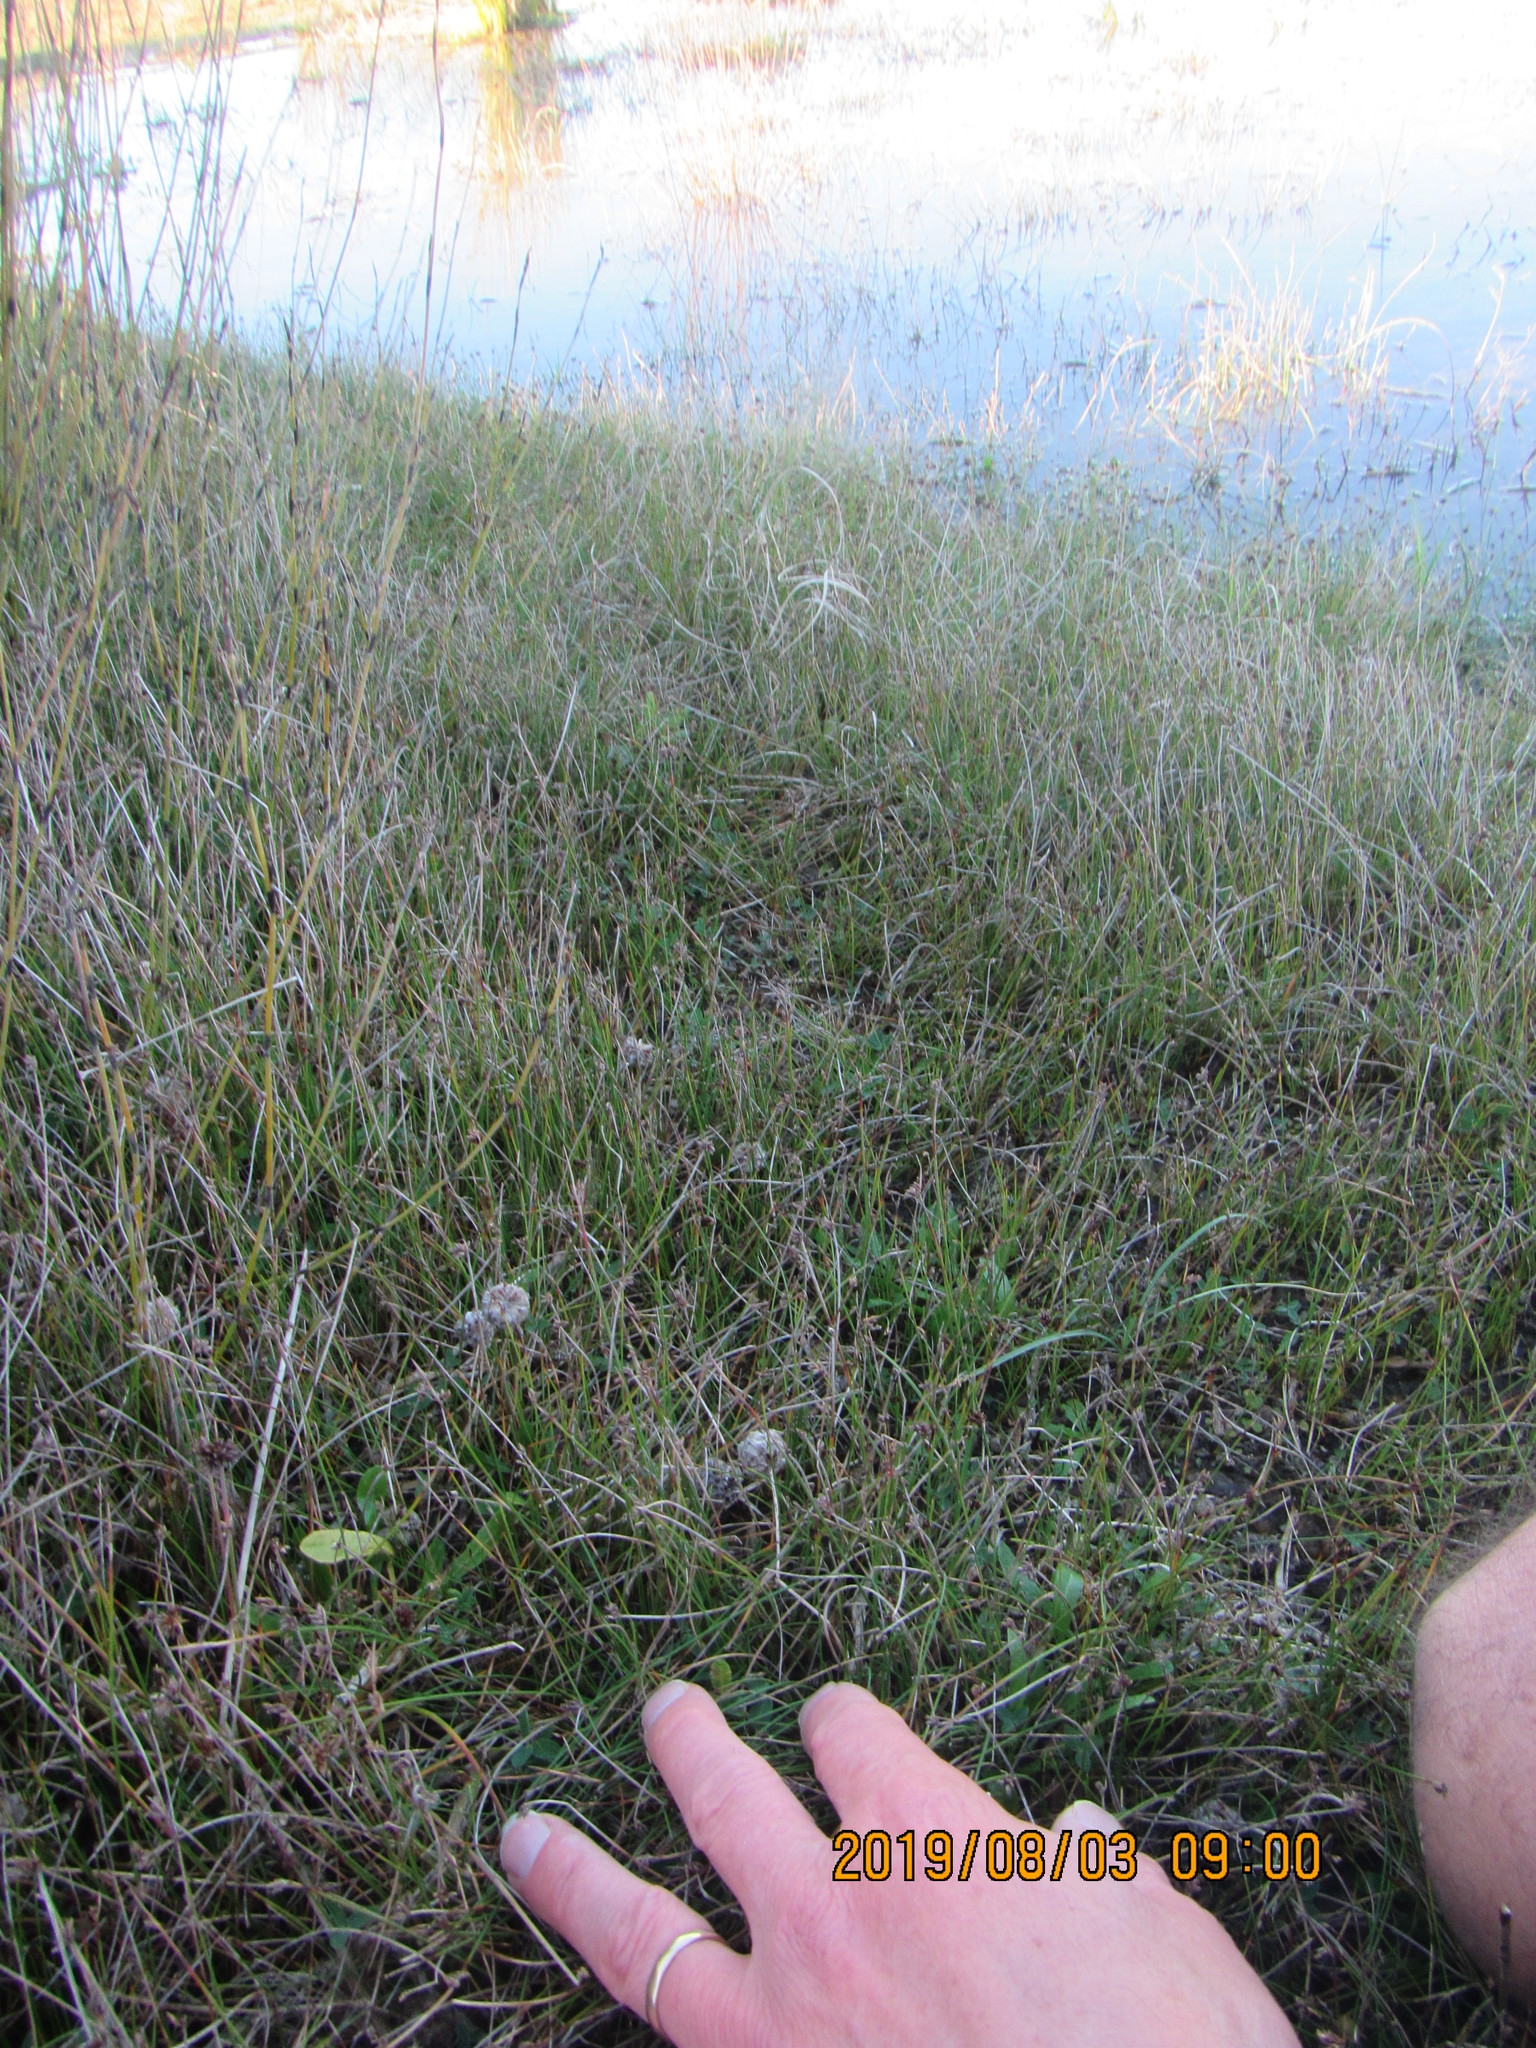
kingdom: Plantae
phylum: Tracheophyta
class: Magnoliopsida
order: Fabales
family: Fabaceae
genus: Trifolium
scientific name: Trifolium fragiferum
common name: Strawberry clover
